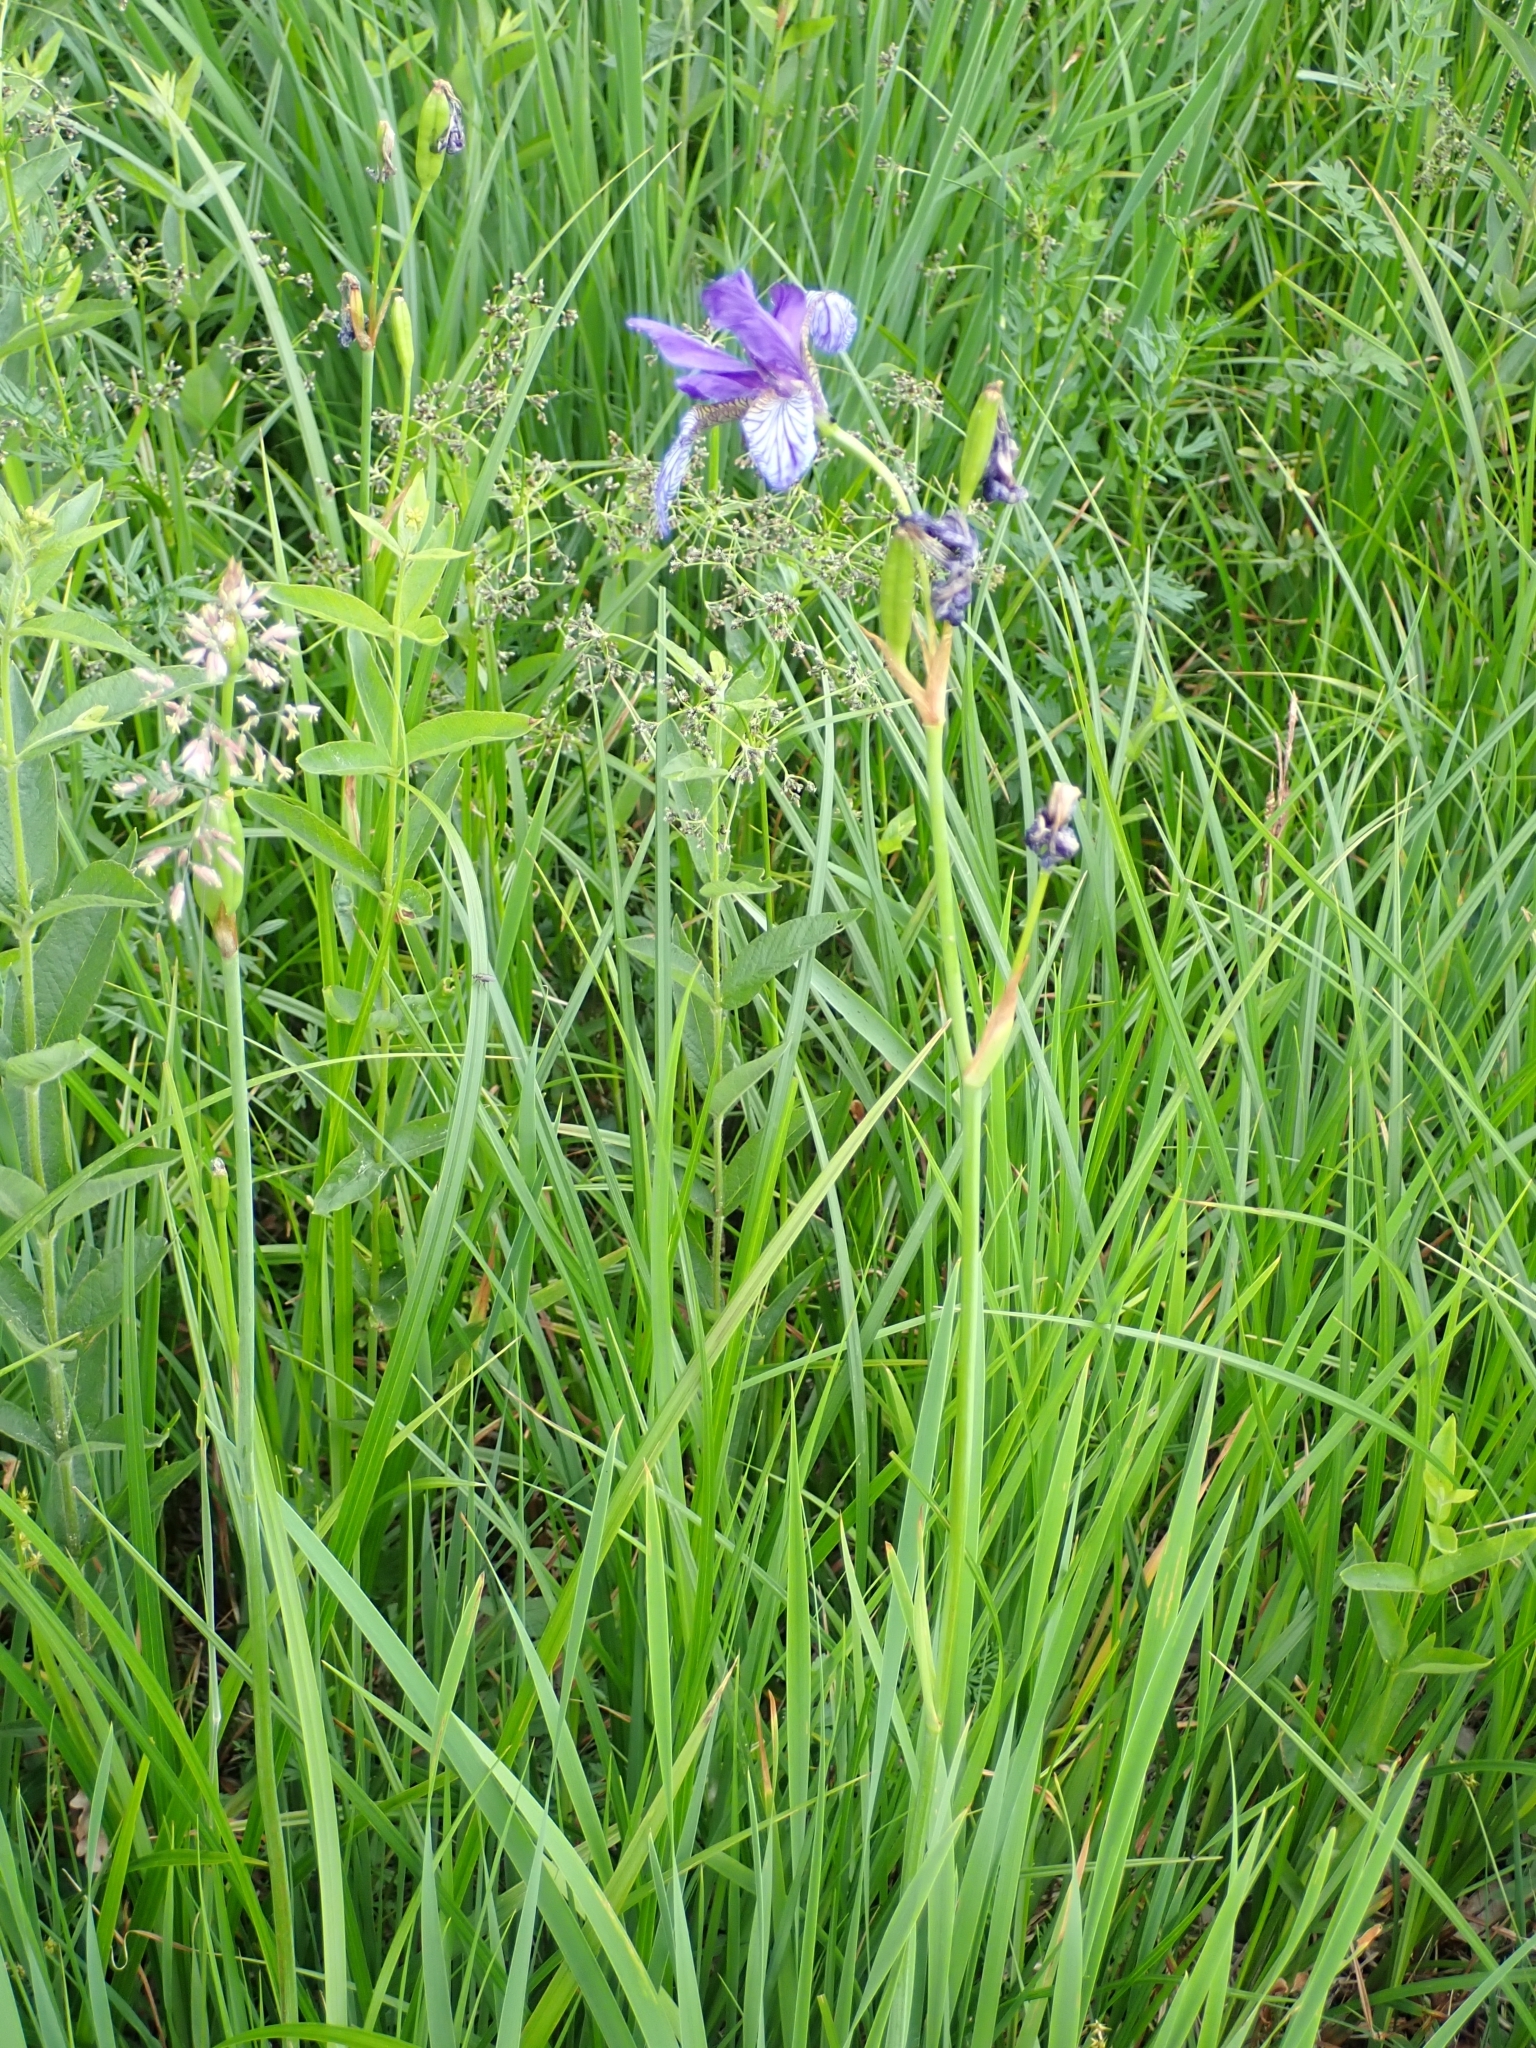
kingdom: Plantae
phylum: Tracheophyta
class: Liliopsida
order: Asparagales
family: Iridaceae
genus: Iris
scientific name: Iris sibirica
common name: Siberian iris
